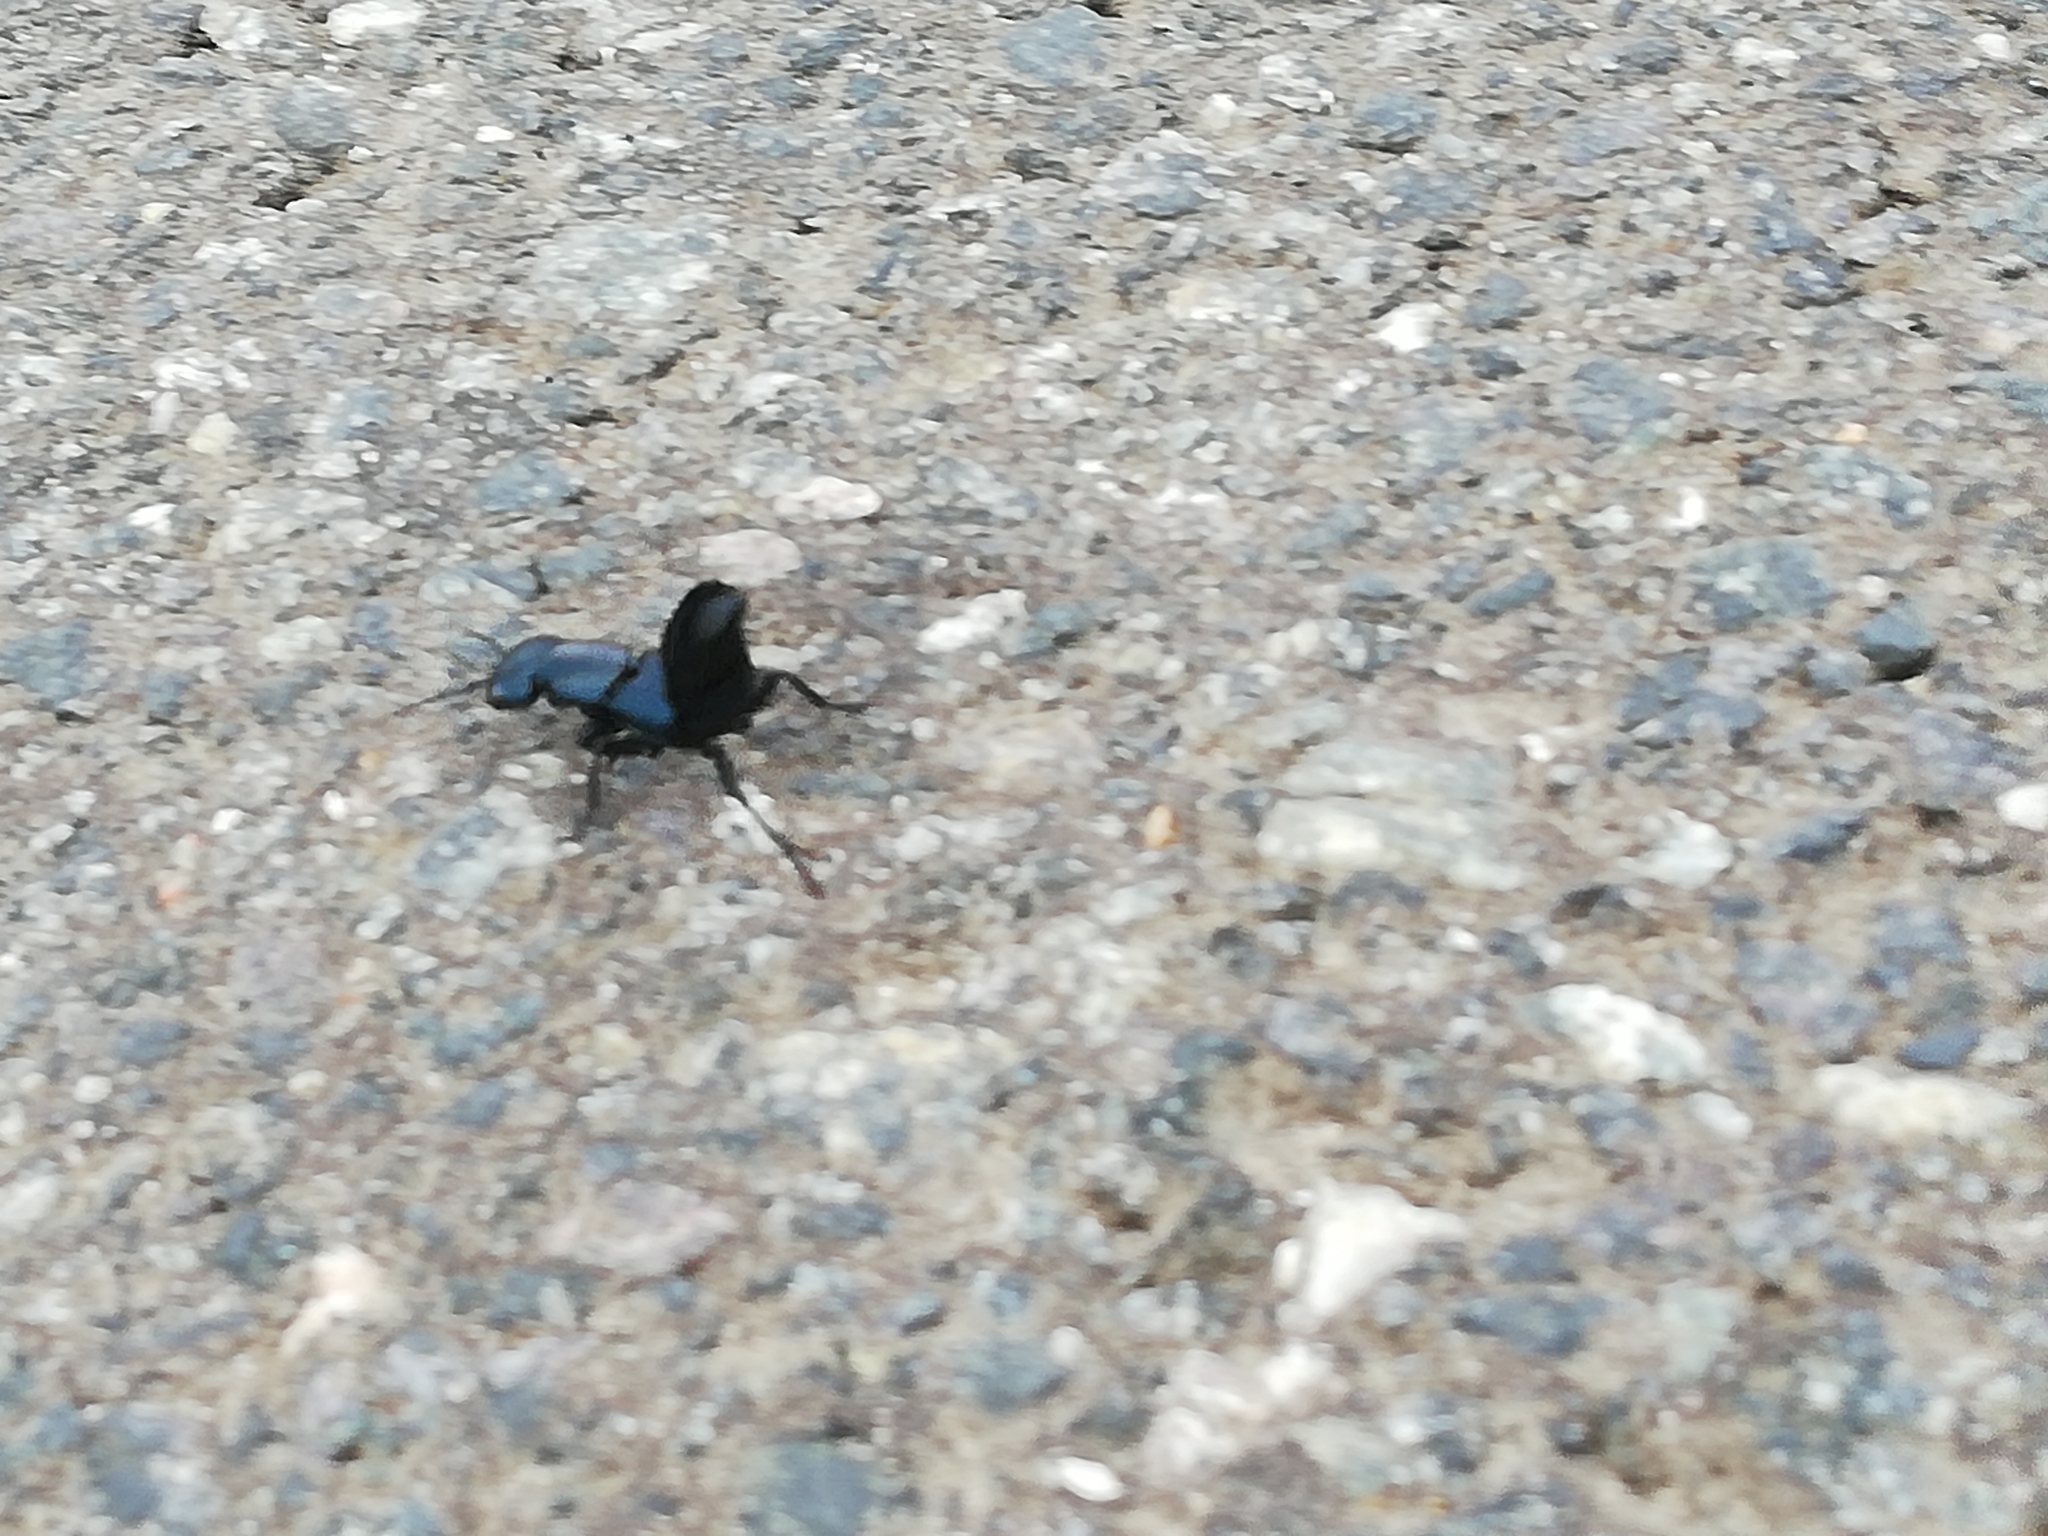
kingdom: Animalia
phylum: Arthropoda
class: Insecta
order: Coleoptera
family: Staphylinidae
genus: Ocypus
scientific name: Ocypus ophthalmicus
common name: Blue rove-beetle
